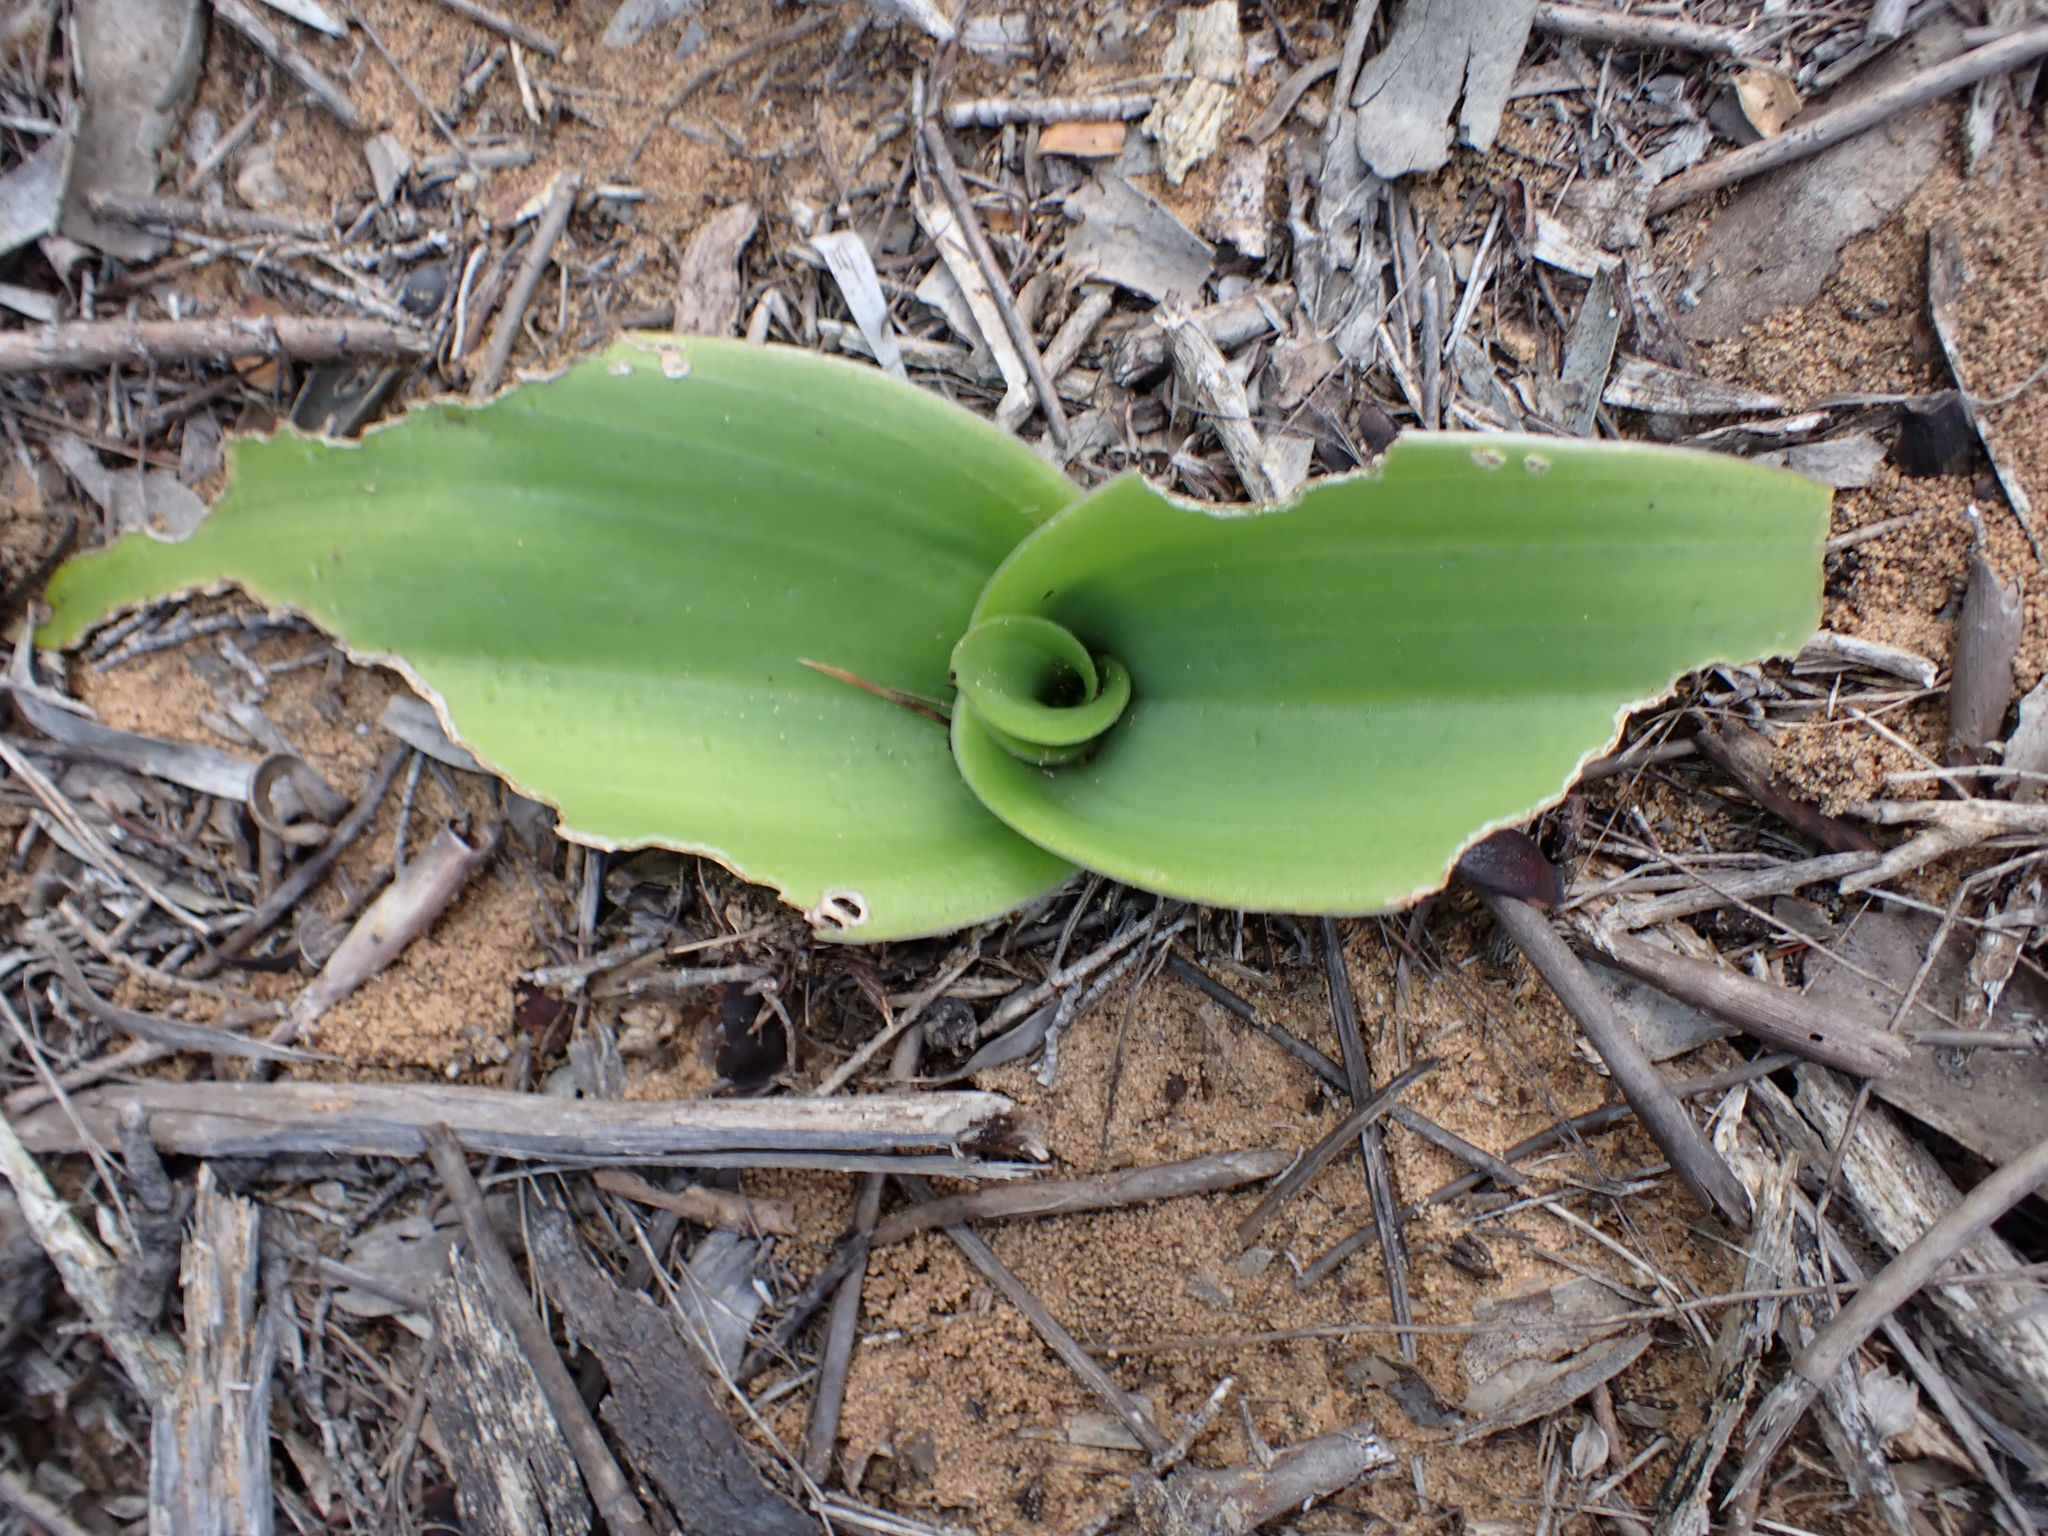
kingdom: Plantae
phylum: Tracheophyta
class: Liliopsida
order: Asparagales
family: Orchidaceae
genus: Satyrium
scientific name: Satyrium carneum
